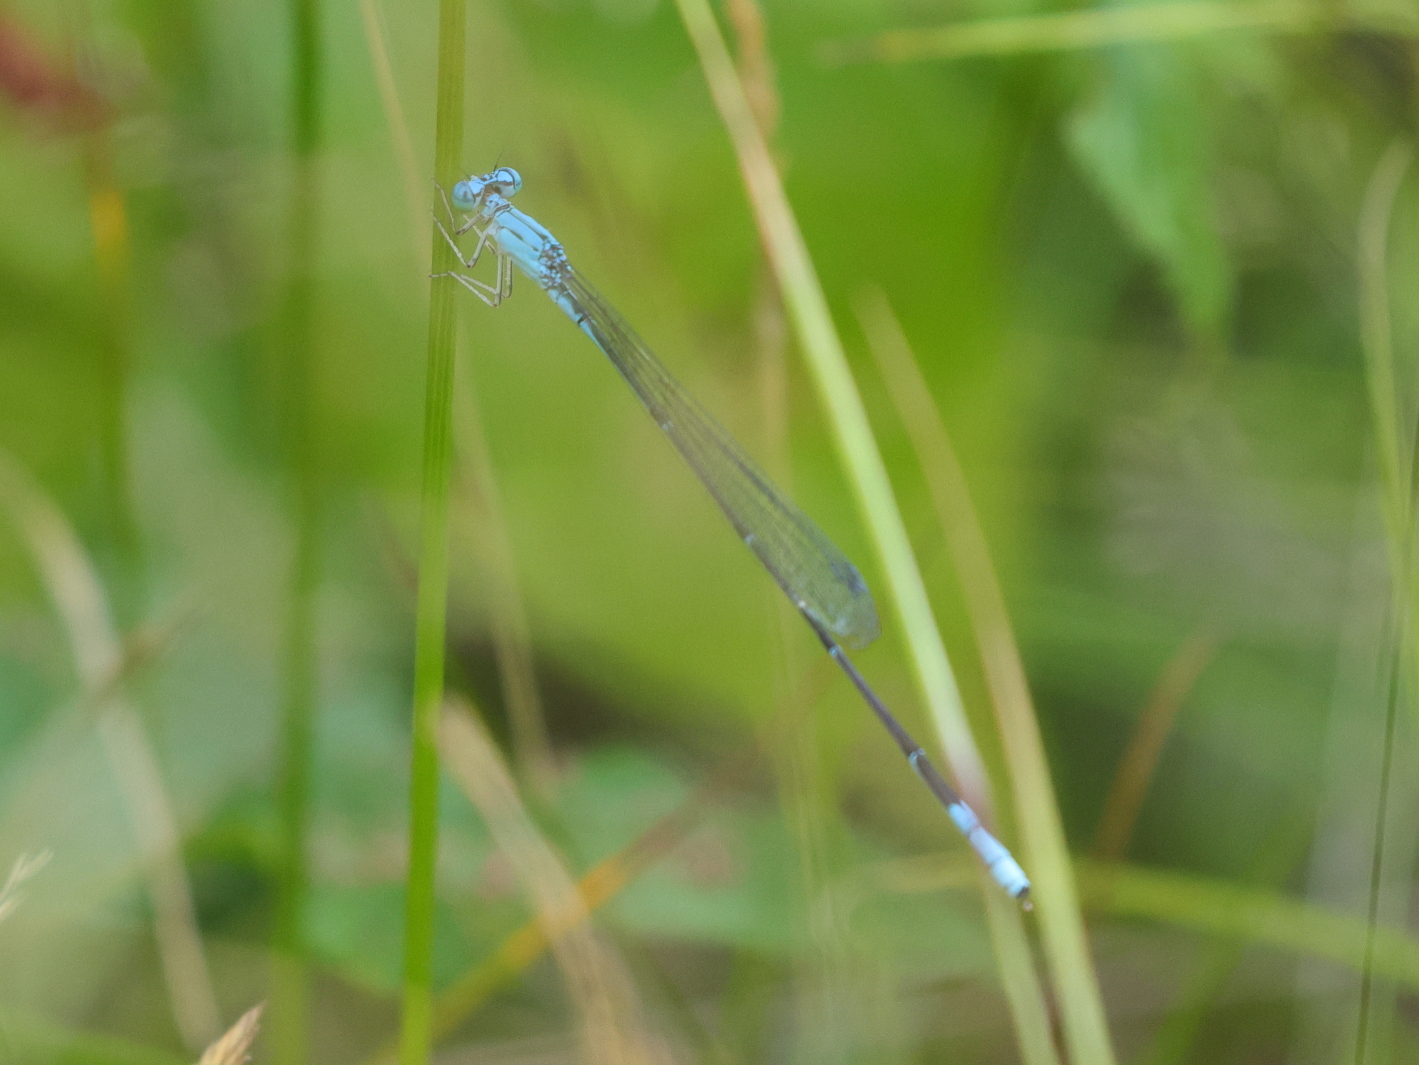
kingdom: Animalia
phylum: Arthropoda
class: Insecta
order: Odonata
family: Coenagrionidae
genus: Enallagma
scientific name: Enallagma daeckii
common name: Attenuated bluet
